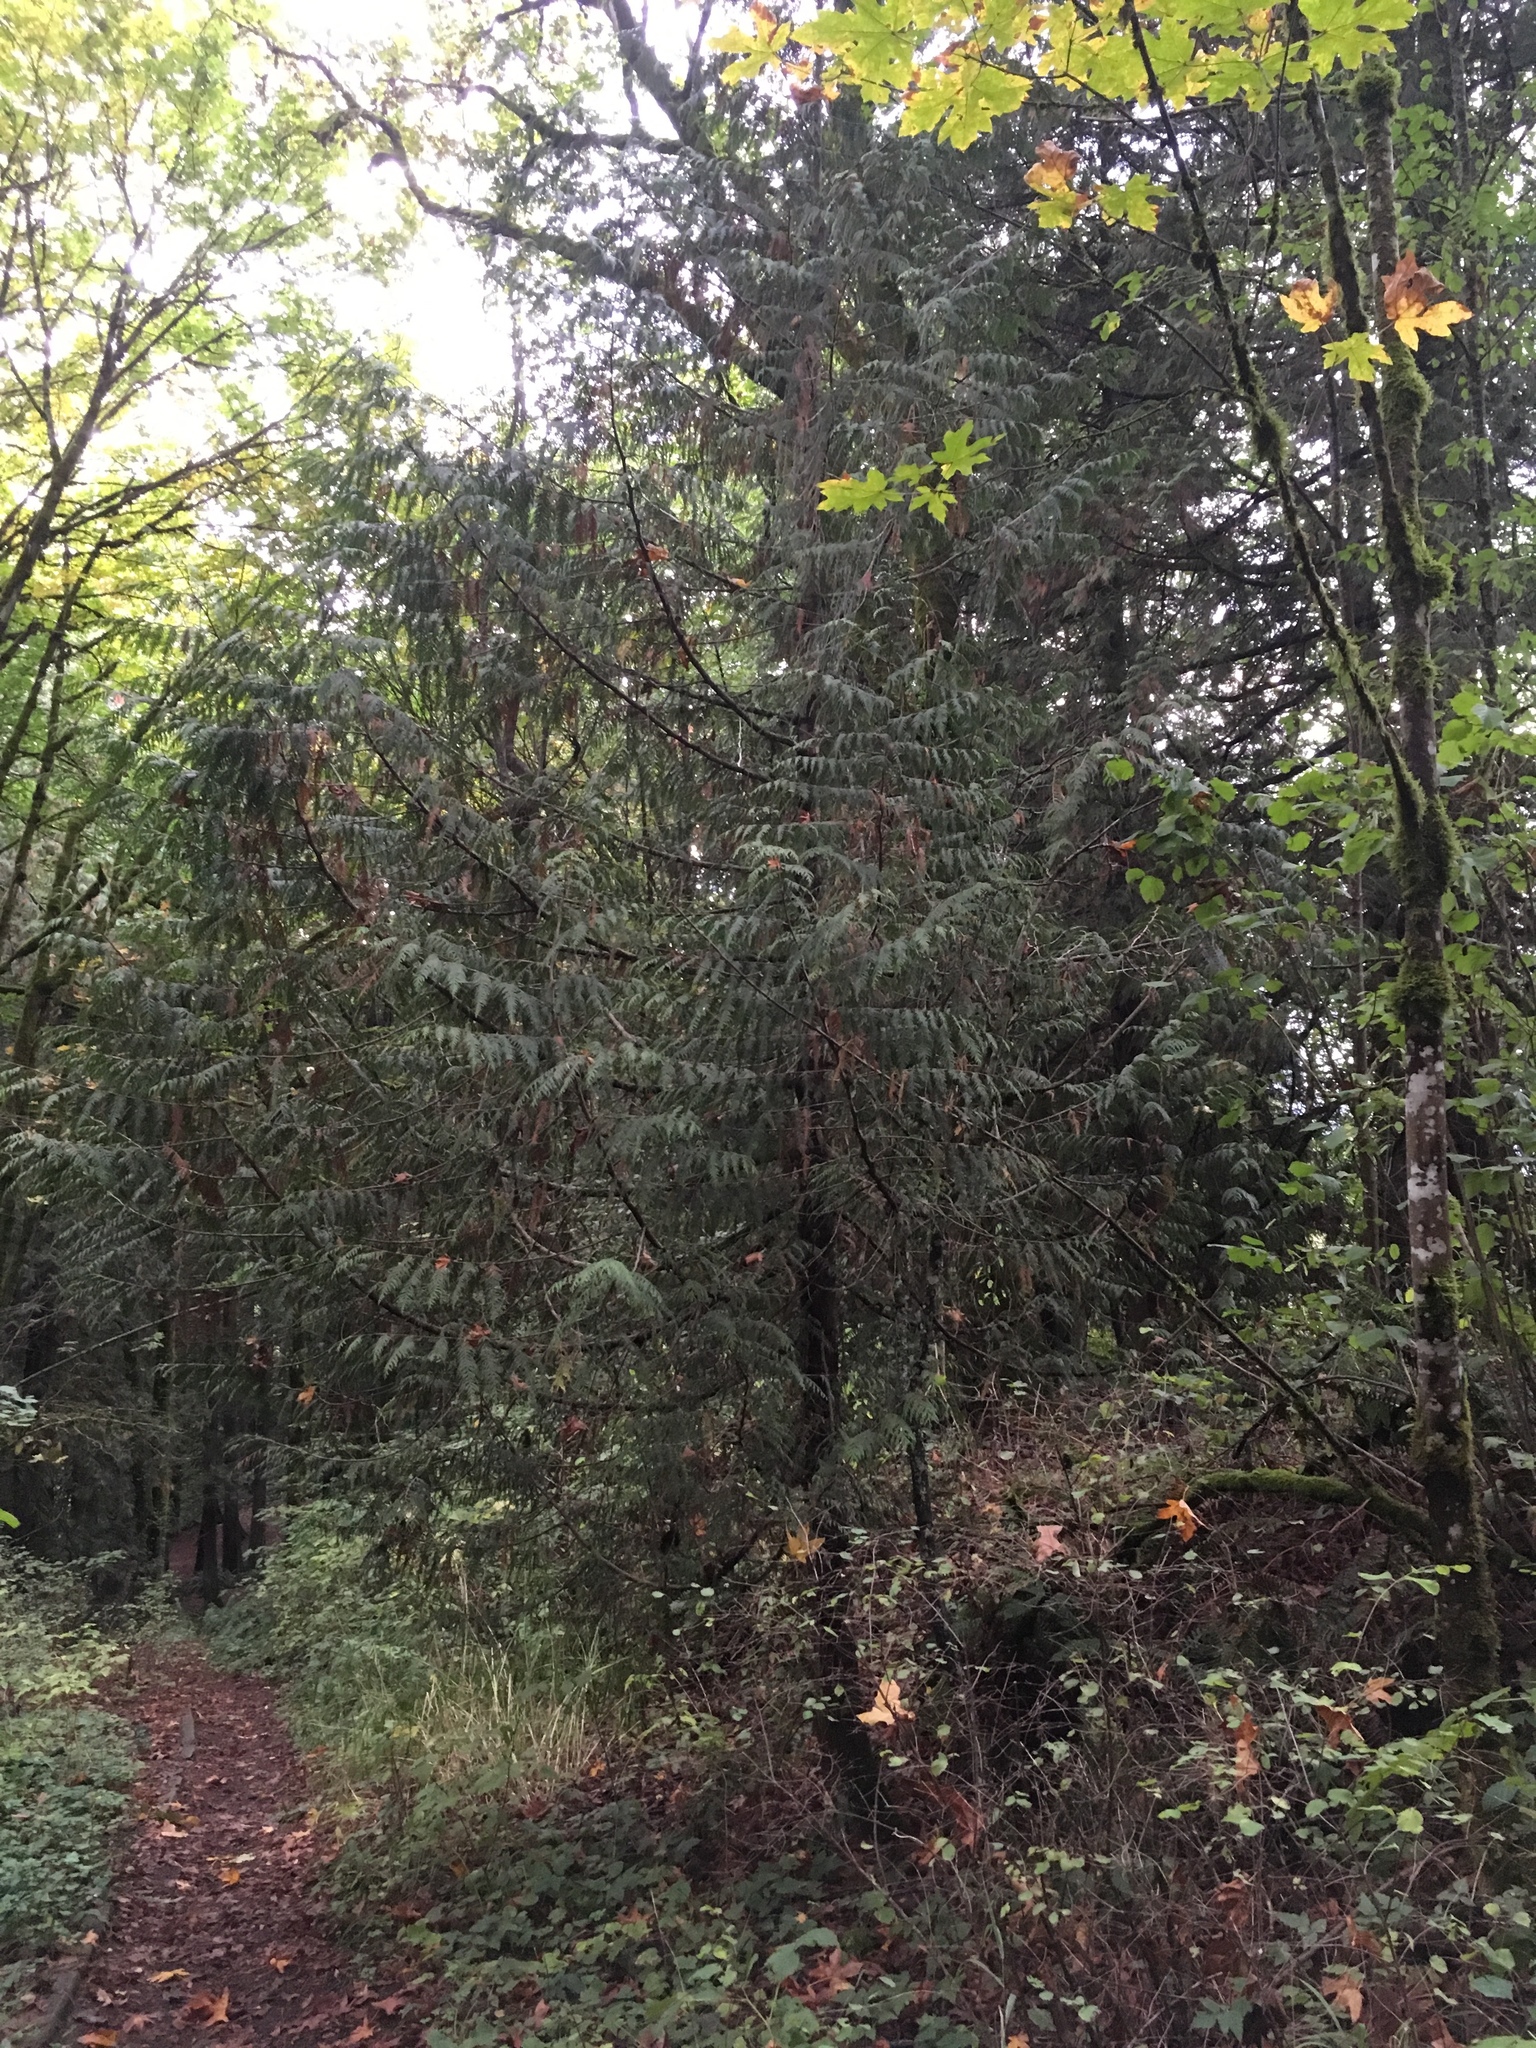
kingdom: Plantae
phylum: Tracheophyta
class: Pinopsida
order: Pinales
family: Cupressaceae
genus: Thuja
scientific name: Thuja plicata
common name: Western red-cedar
